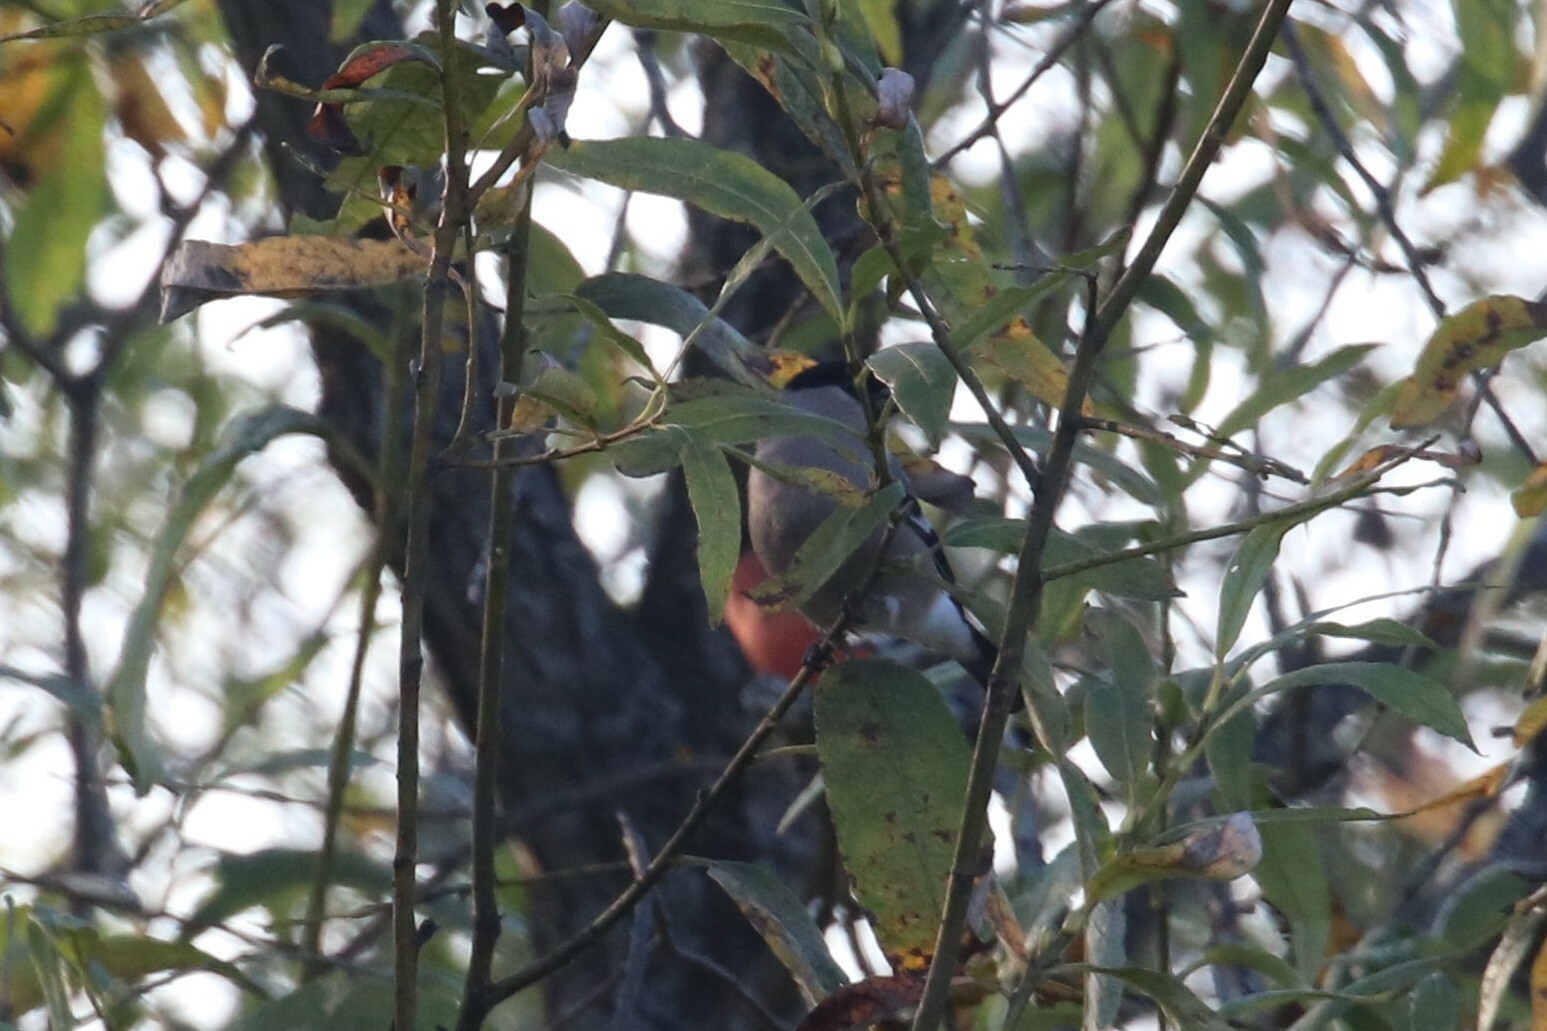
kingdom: Animalia
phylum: Chordata
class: Aves
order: Passeriformes
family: Fringillidae
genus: Pyrrhula
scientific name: Pyrrhula pyrrhula
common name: Eurasian bullfinch
